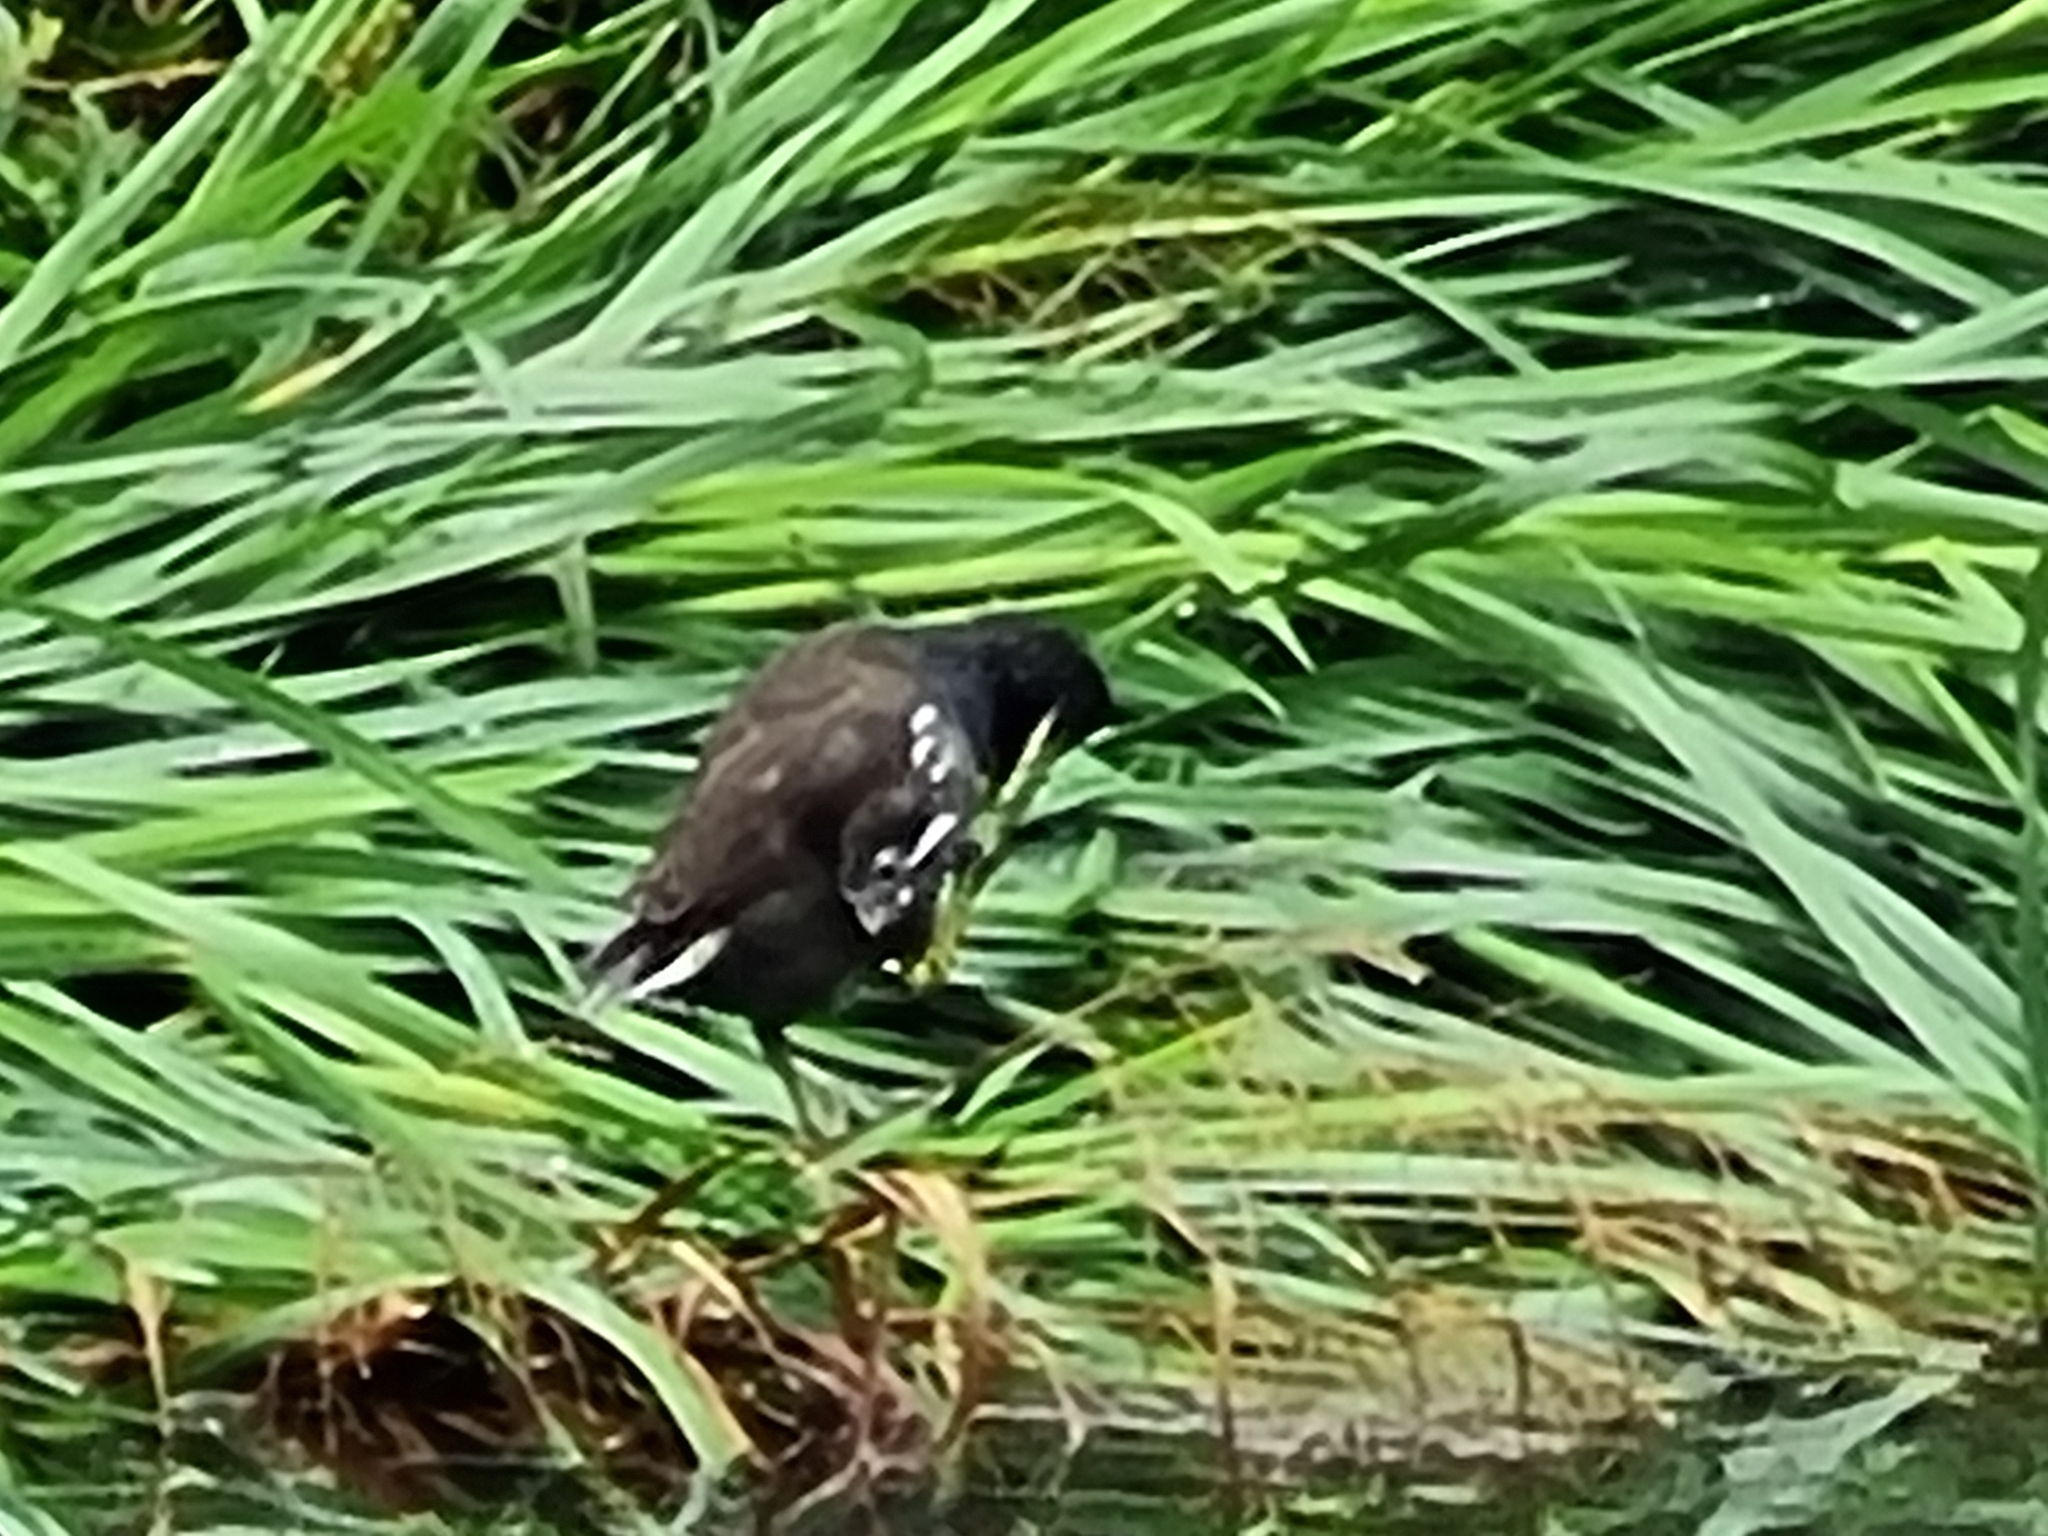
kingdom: Animalia
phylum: Chordata
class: Aves
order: Gruiformes
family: Rallidae
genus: Gallinula
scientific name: Gallinula chloropus
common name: Common moorhen
